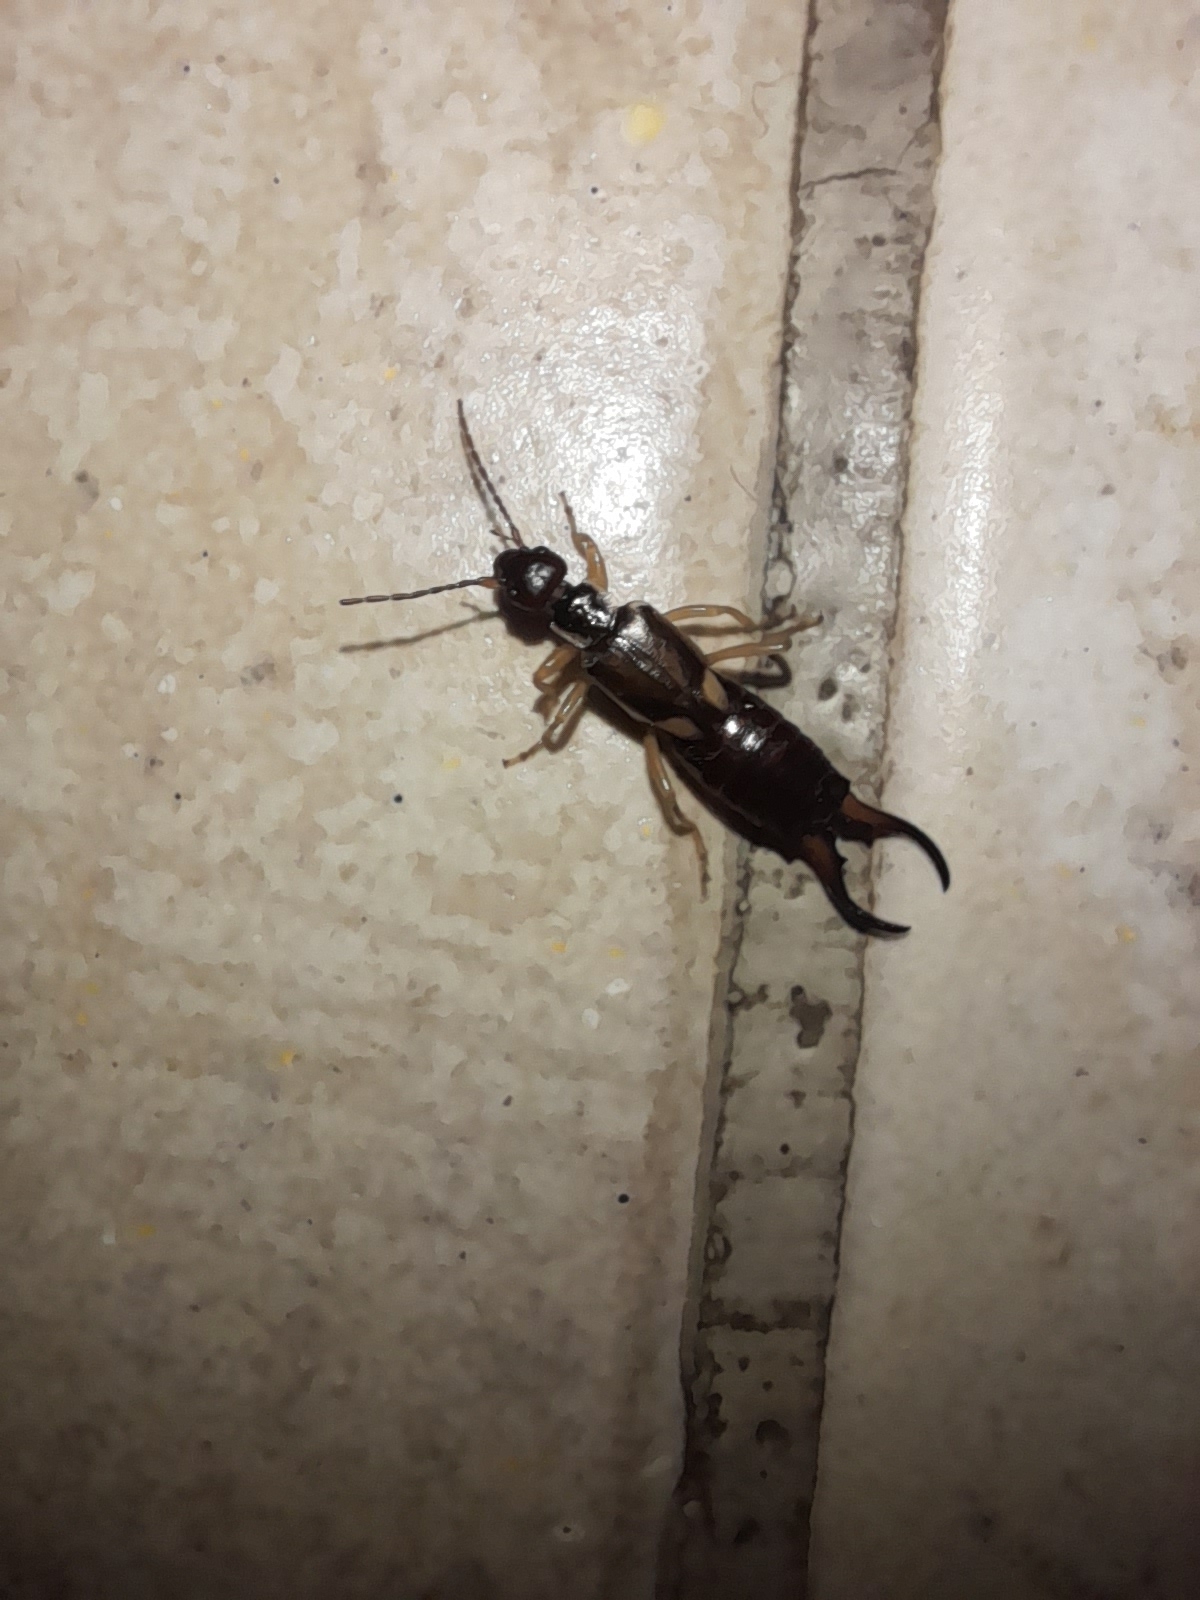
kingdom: Animalia
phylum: Arthropoda
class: Insecta
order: Dermaptera
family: Forficulidae
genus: Forficula
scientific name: Forficula auricularia
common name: European earwig
